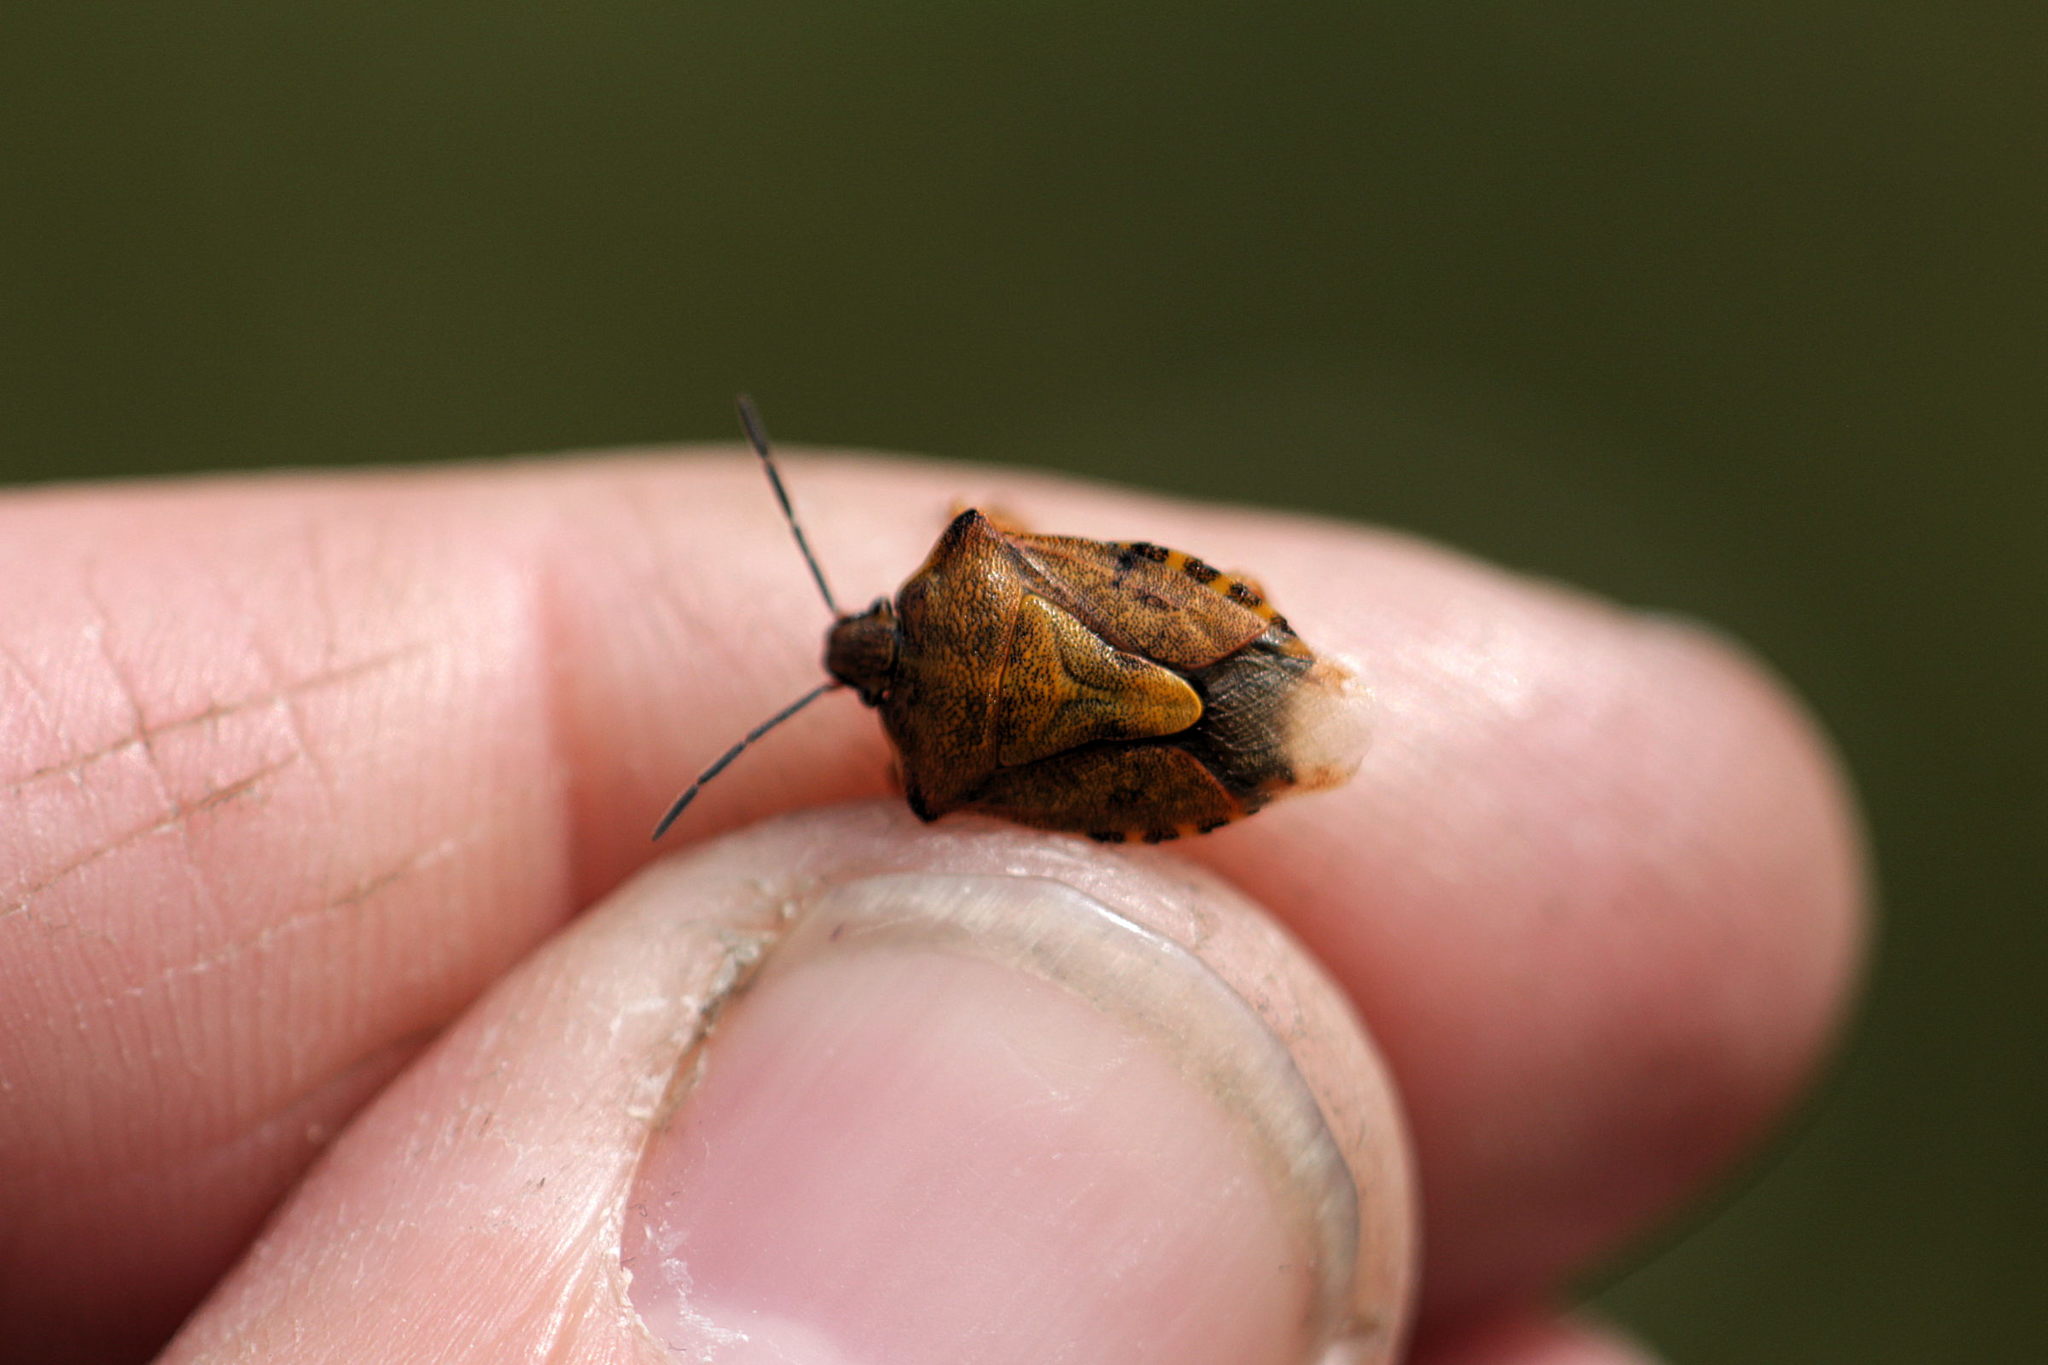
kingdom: Animalia
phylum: Arthropoda
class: Insecta
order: Hemiptera
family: Pentatomidae
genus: Carpocoris
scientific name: Carpocoris purpureipennis
